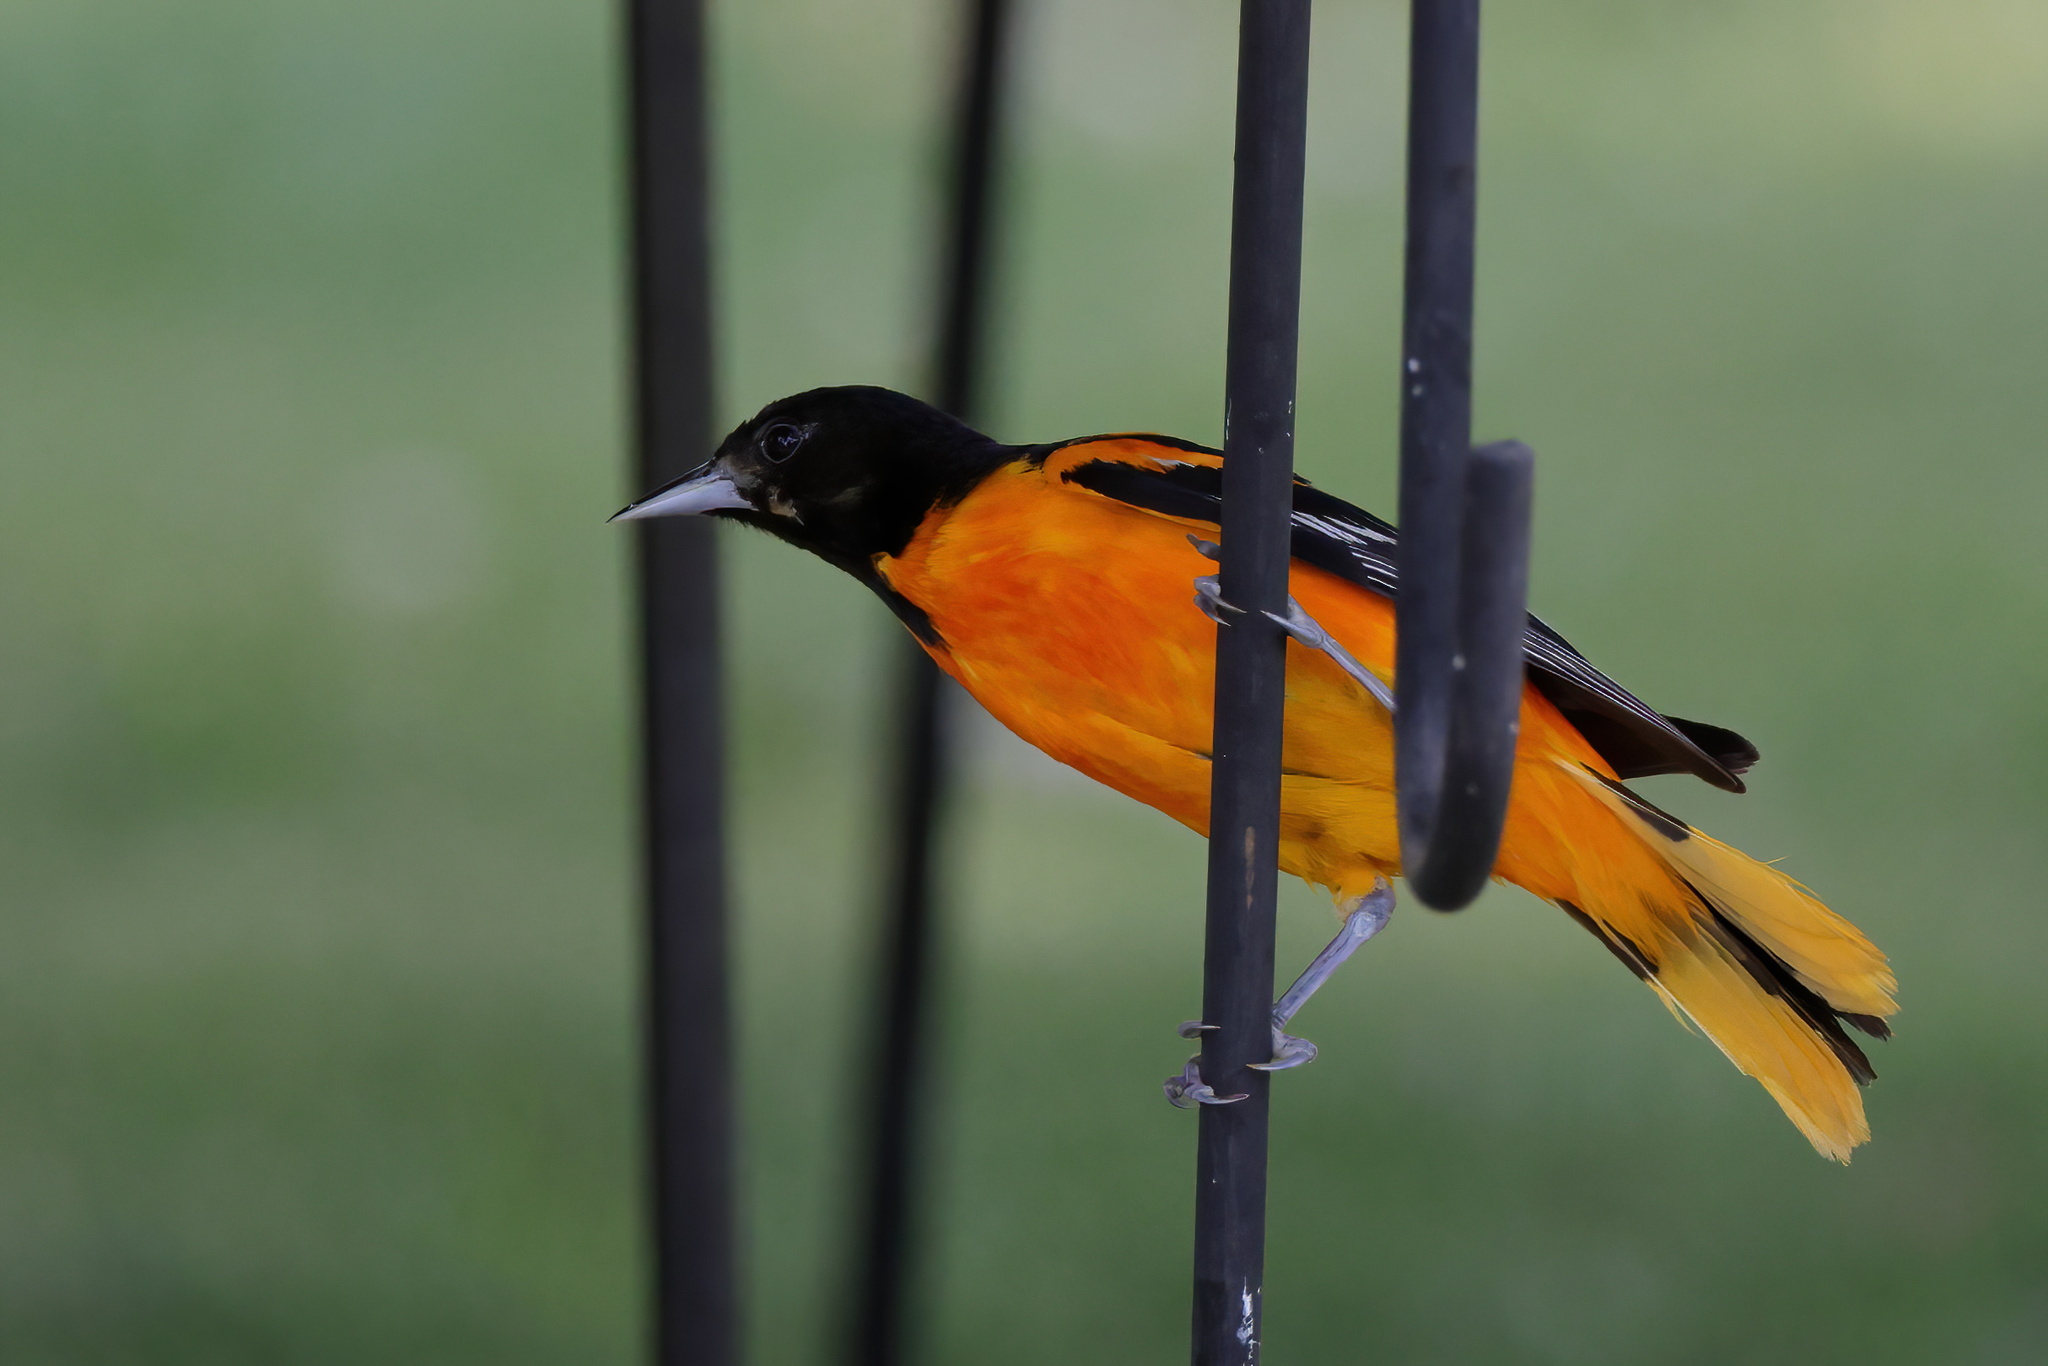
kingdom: Animalia
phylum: Chordata
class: Aves
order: Passeriformes
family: Icteridae
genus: Icterus
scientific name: Icterus galbula
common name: Baltimore oriole
